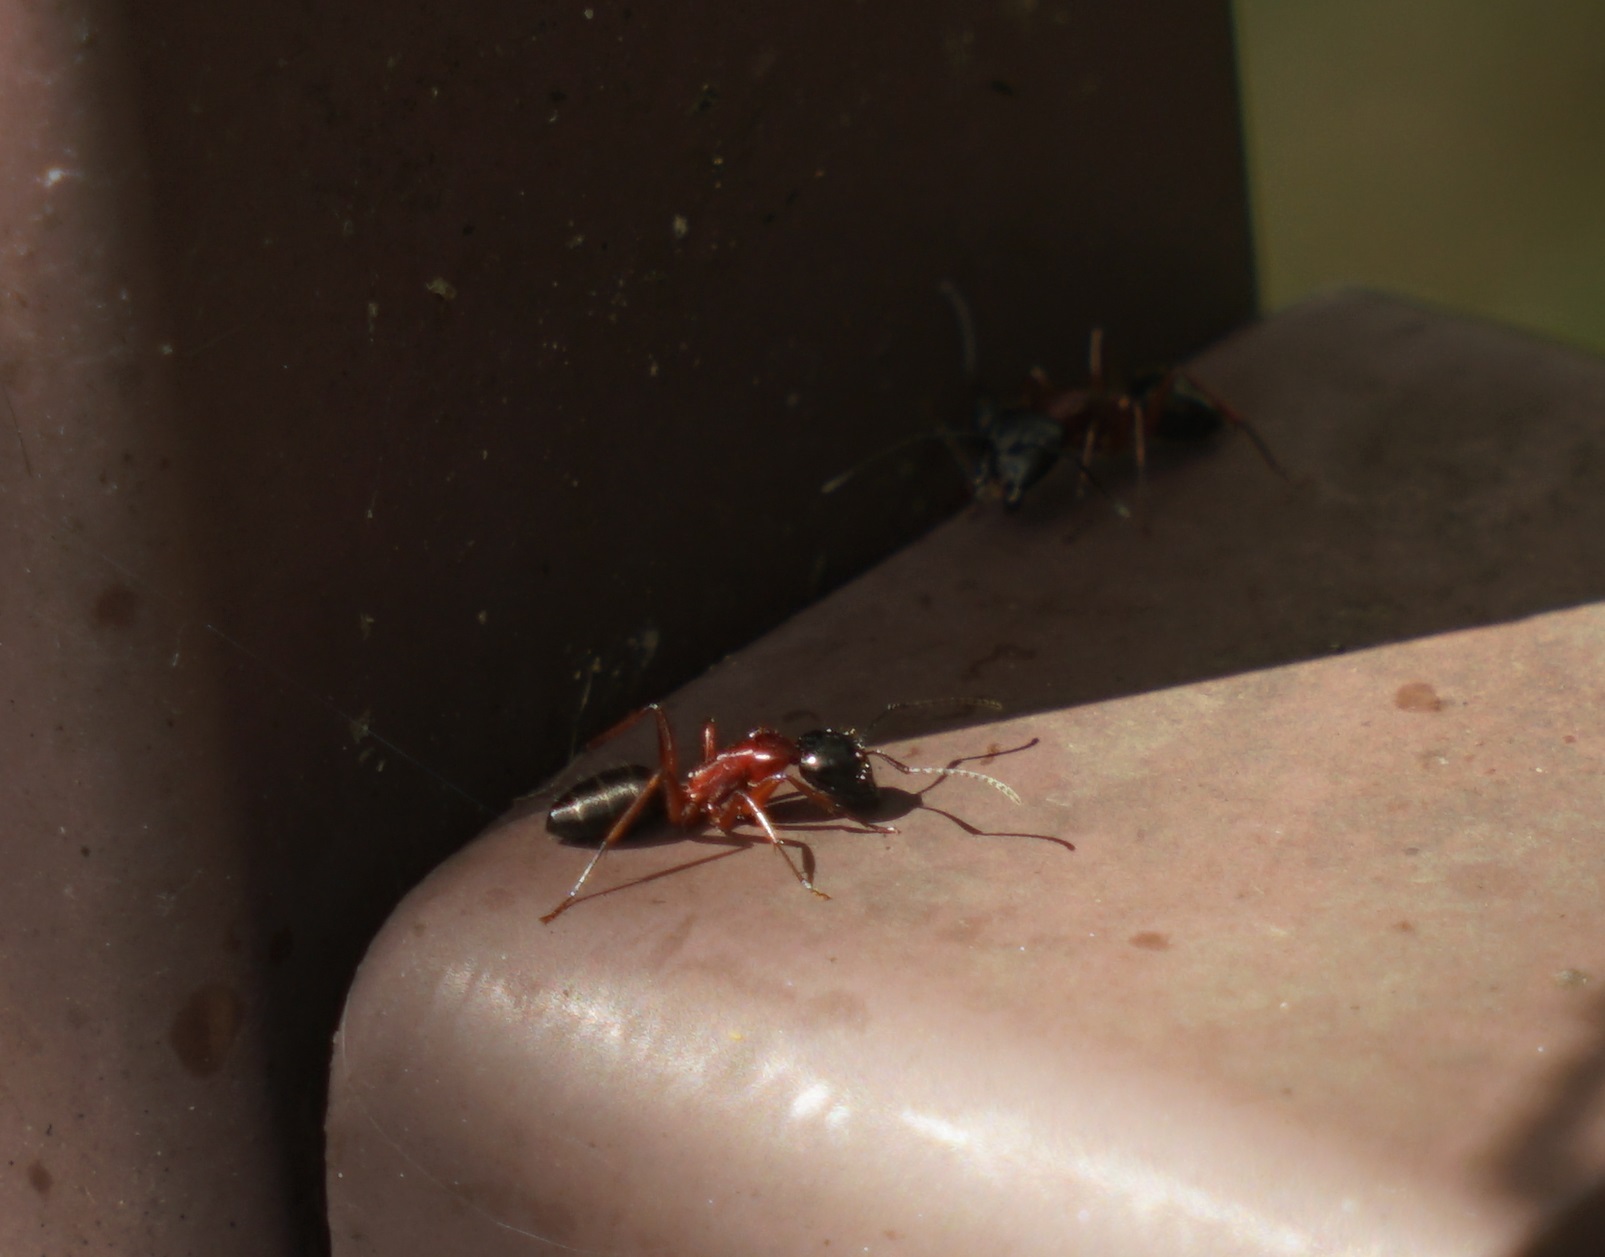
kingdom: Animalia
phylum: Arthropoda
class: Insecta
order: Hymenoptera
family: Formicidae
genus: Camponotus
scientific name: Camponotus innexus
